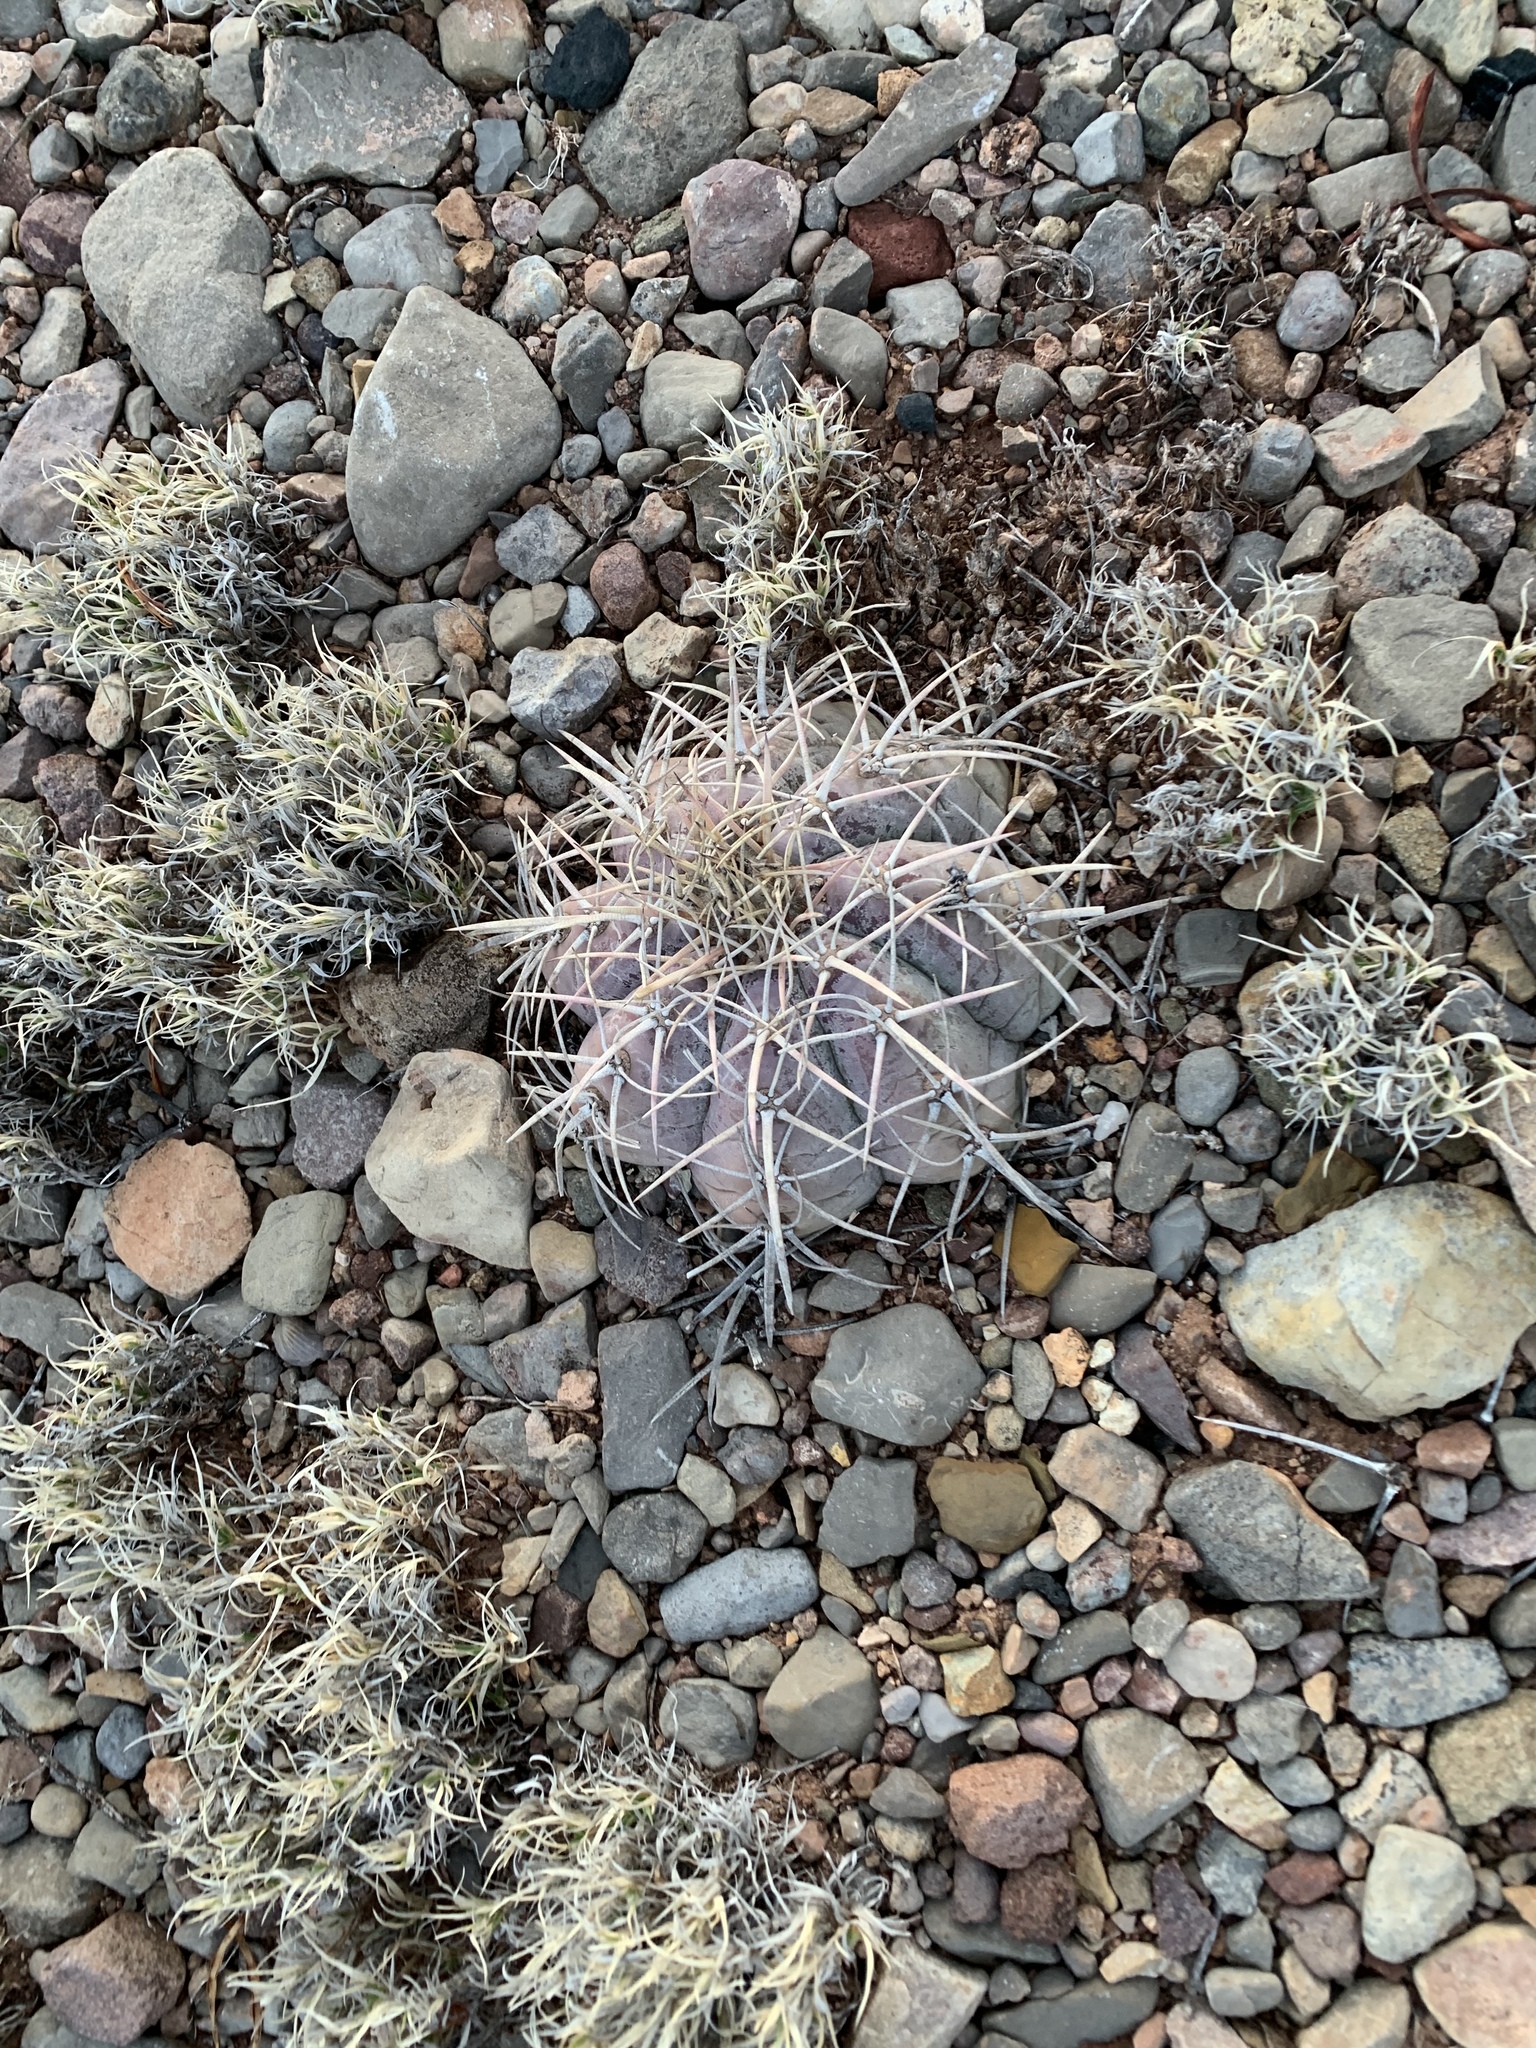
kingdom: Plantae
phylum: Tracheophyta
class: Magnoliopsida
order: Caryophyllales
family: Cactaceae
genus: Echinocactus
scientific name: Echinocactus horizonthalonius
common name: Devilshead
